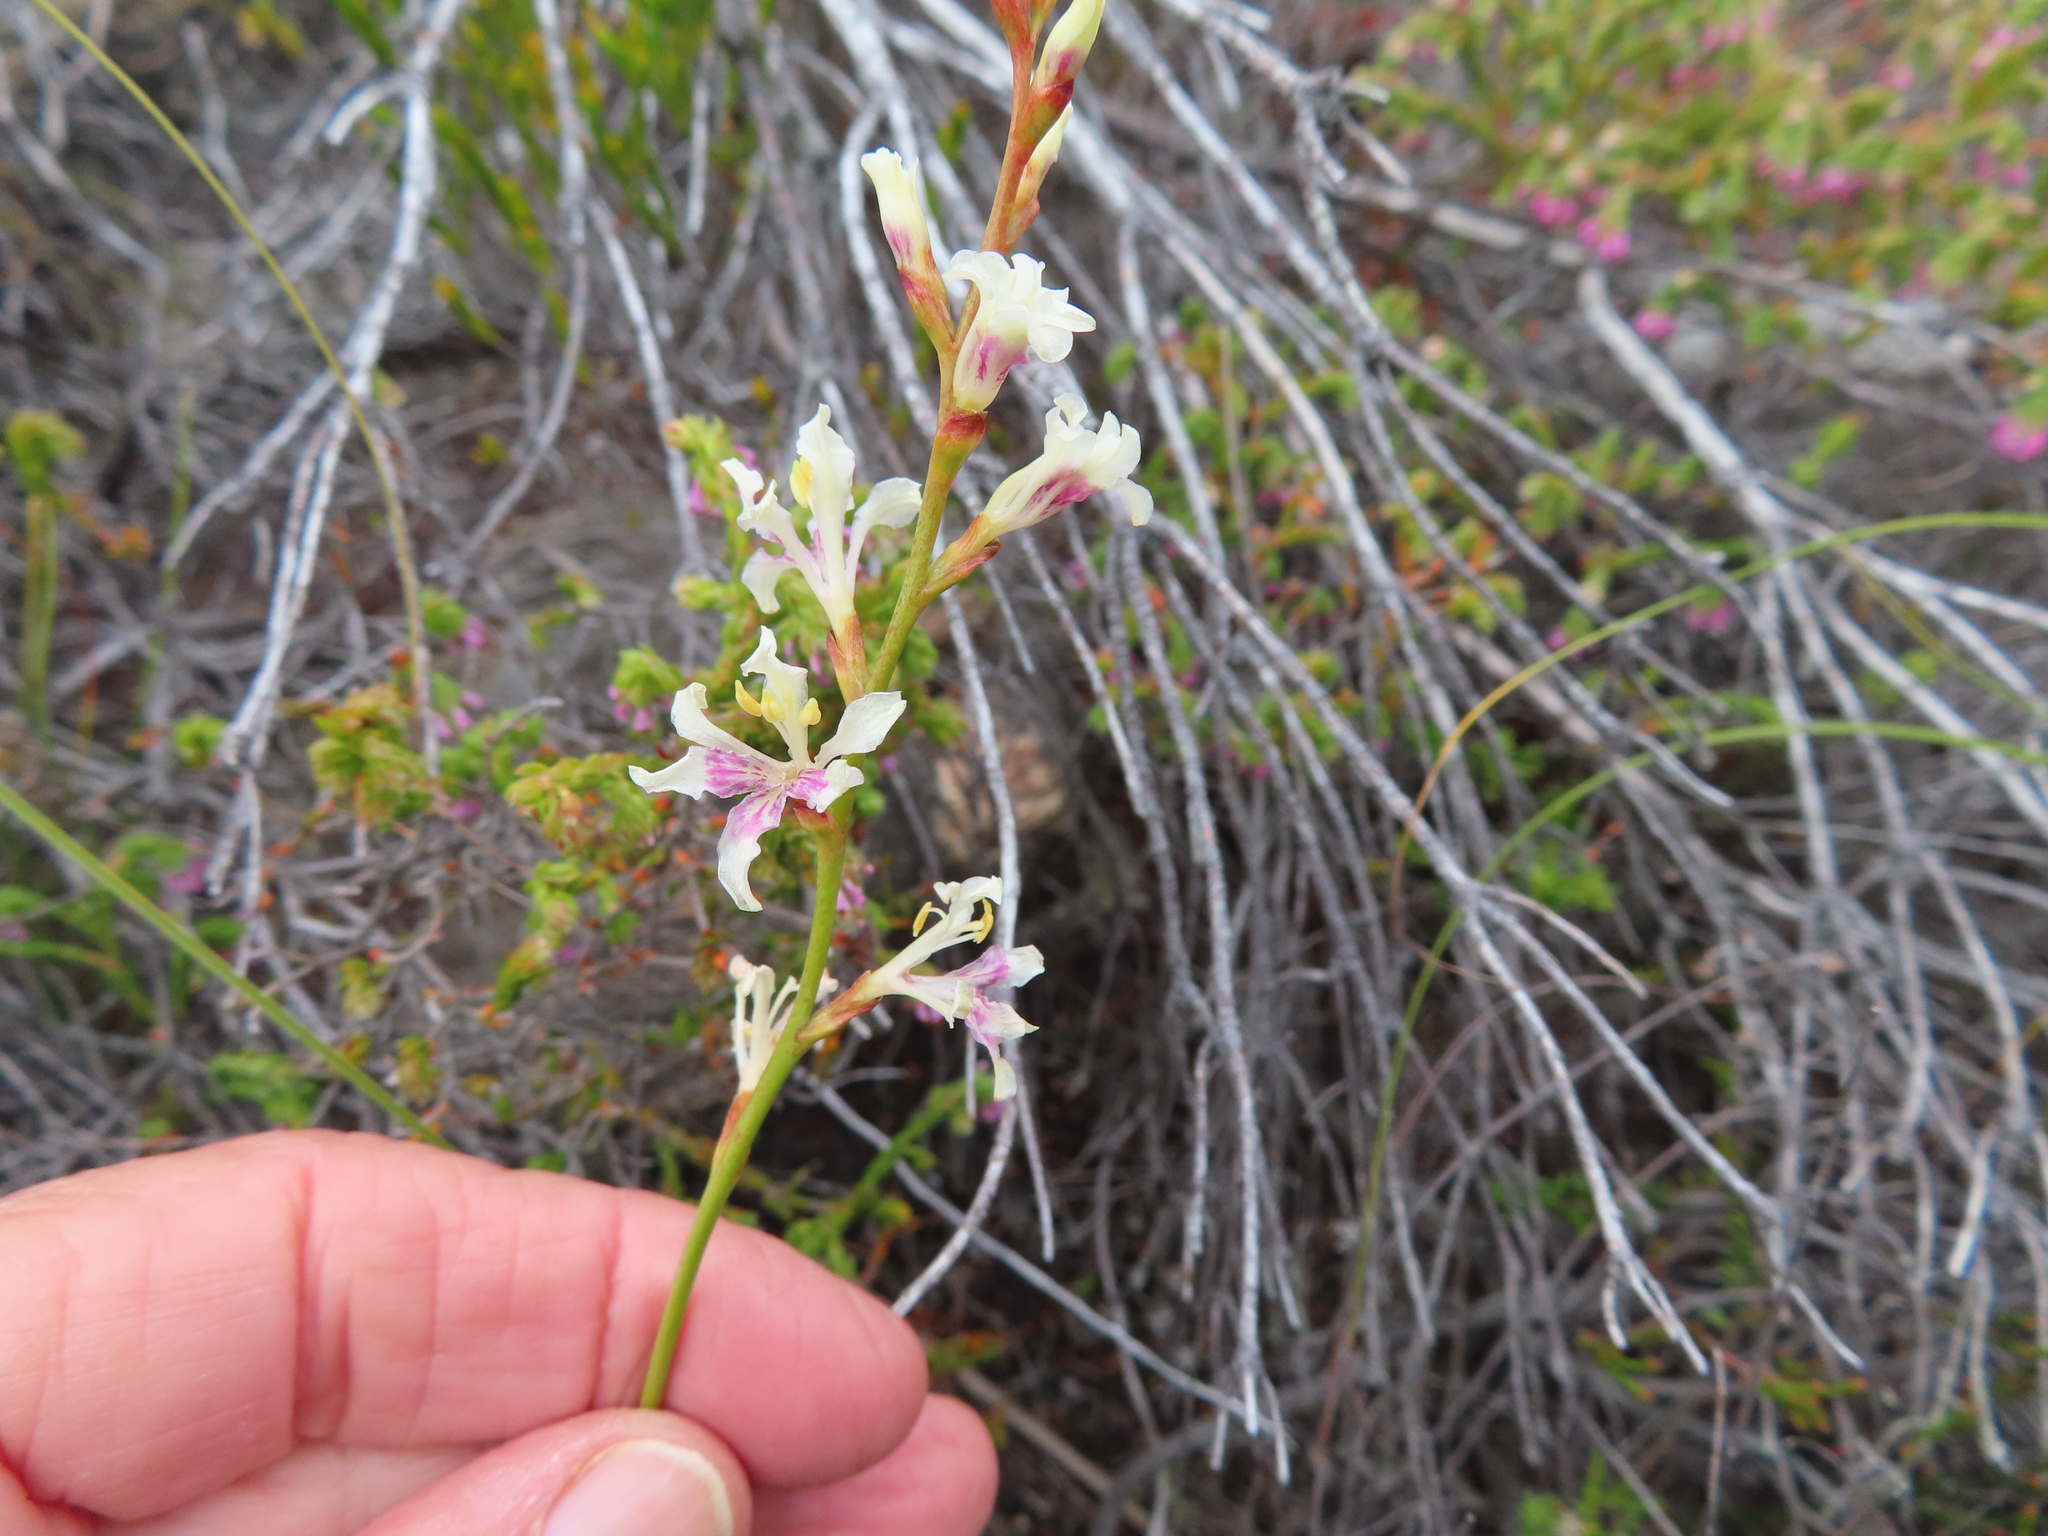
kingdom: Plantae
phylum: Tracheophyta
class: Liliopsida
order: Asparagales
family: Iridaceae
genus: Tritoniopsis
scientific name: Tritoniopsis unguicularis
